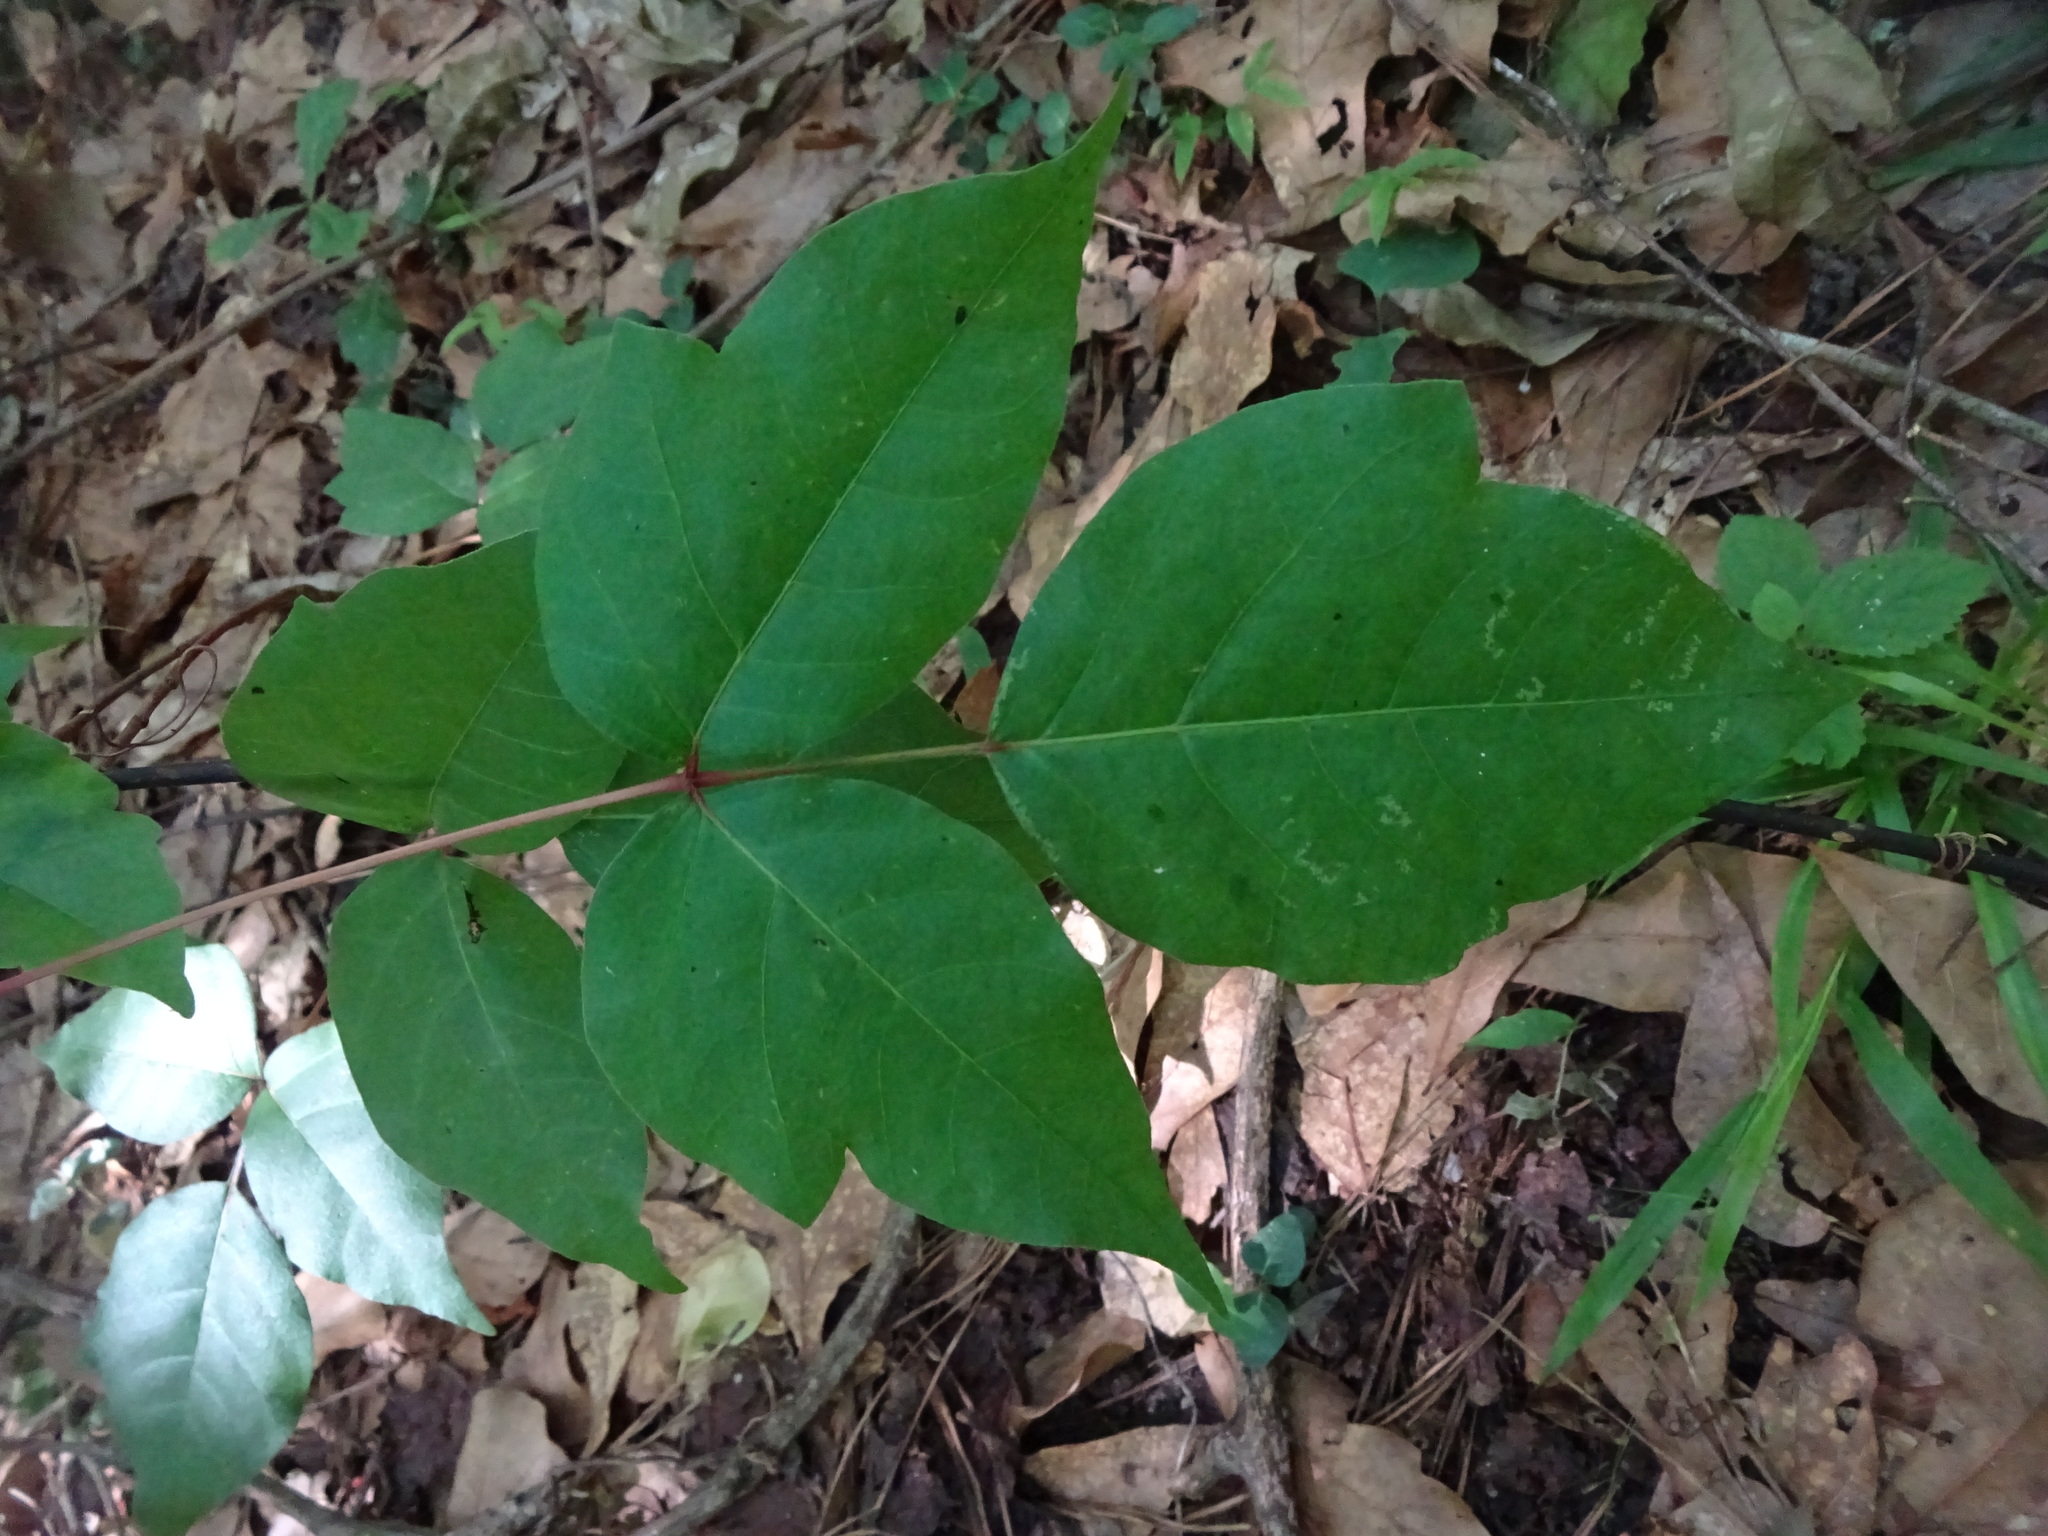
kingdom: Plantae
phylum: Tracheophyta
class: Magnoliopsida
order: Sapindales
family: Anacardiaceae
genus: Toxicodendron
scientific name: Toxicodendron radicans
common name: Poison ivy
